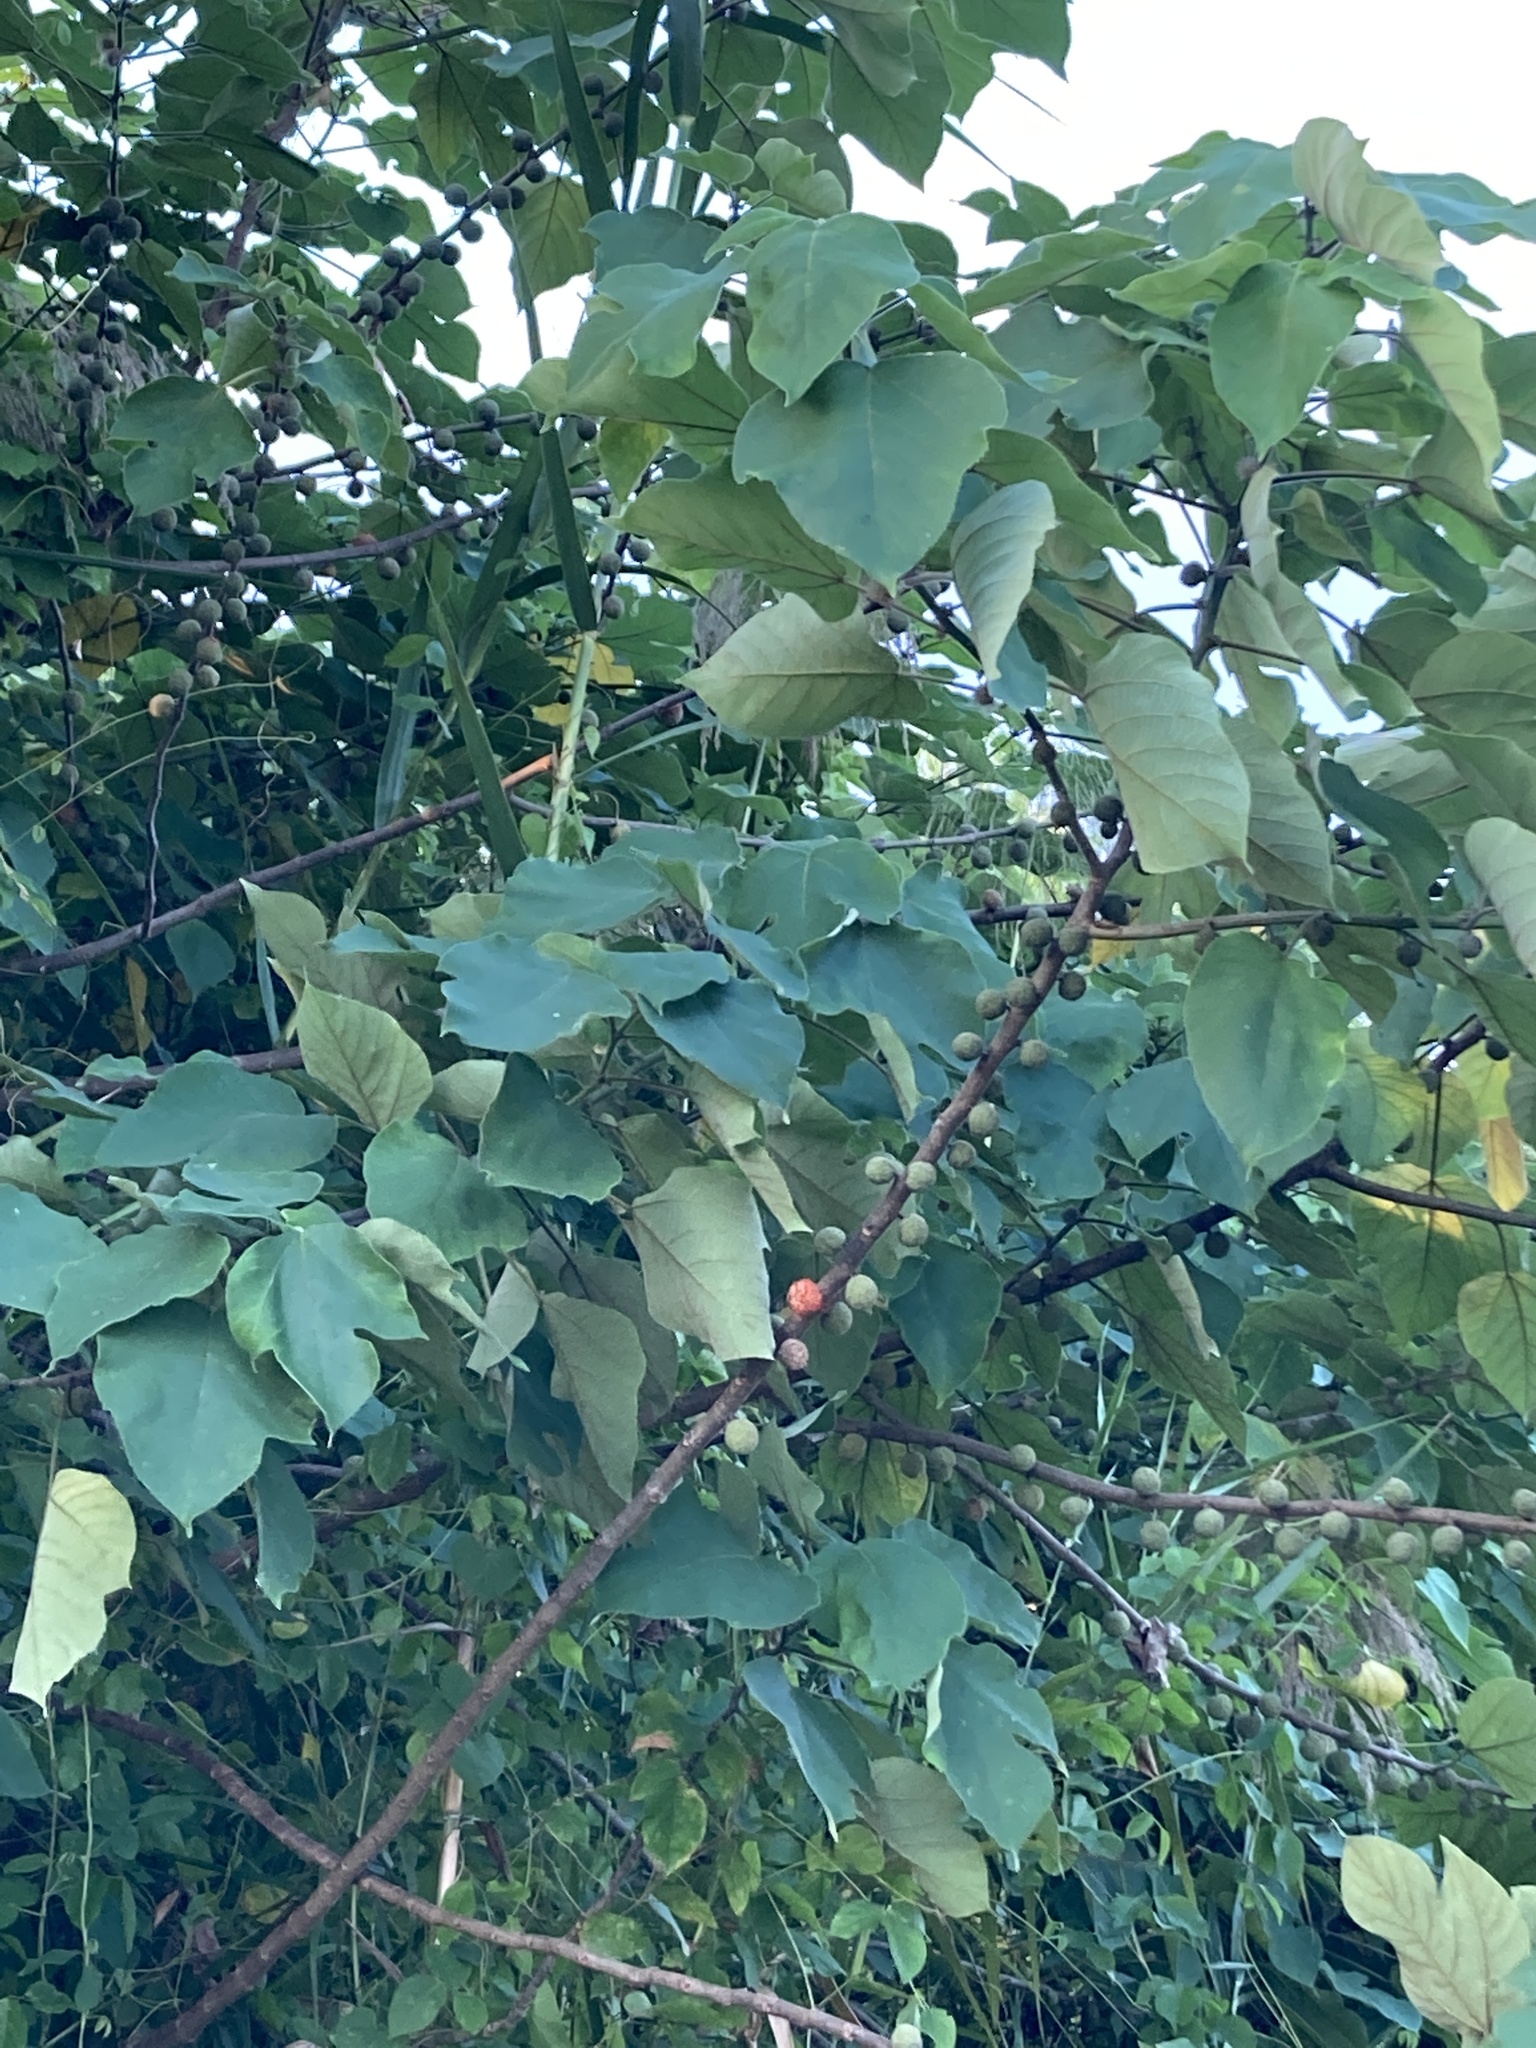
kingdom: Plantae
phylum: Tracheophyta
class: Magnoliopsida
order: Rosales
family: Moraceae
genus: Broussonetia
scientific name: Broussonetia papyrifera
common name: Paper mulberry
